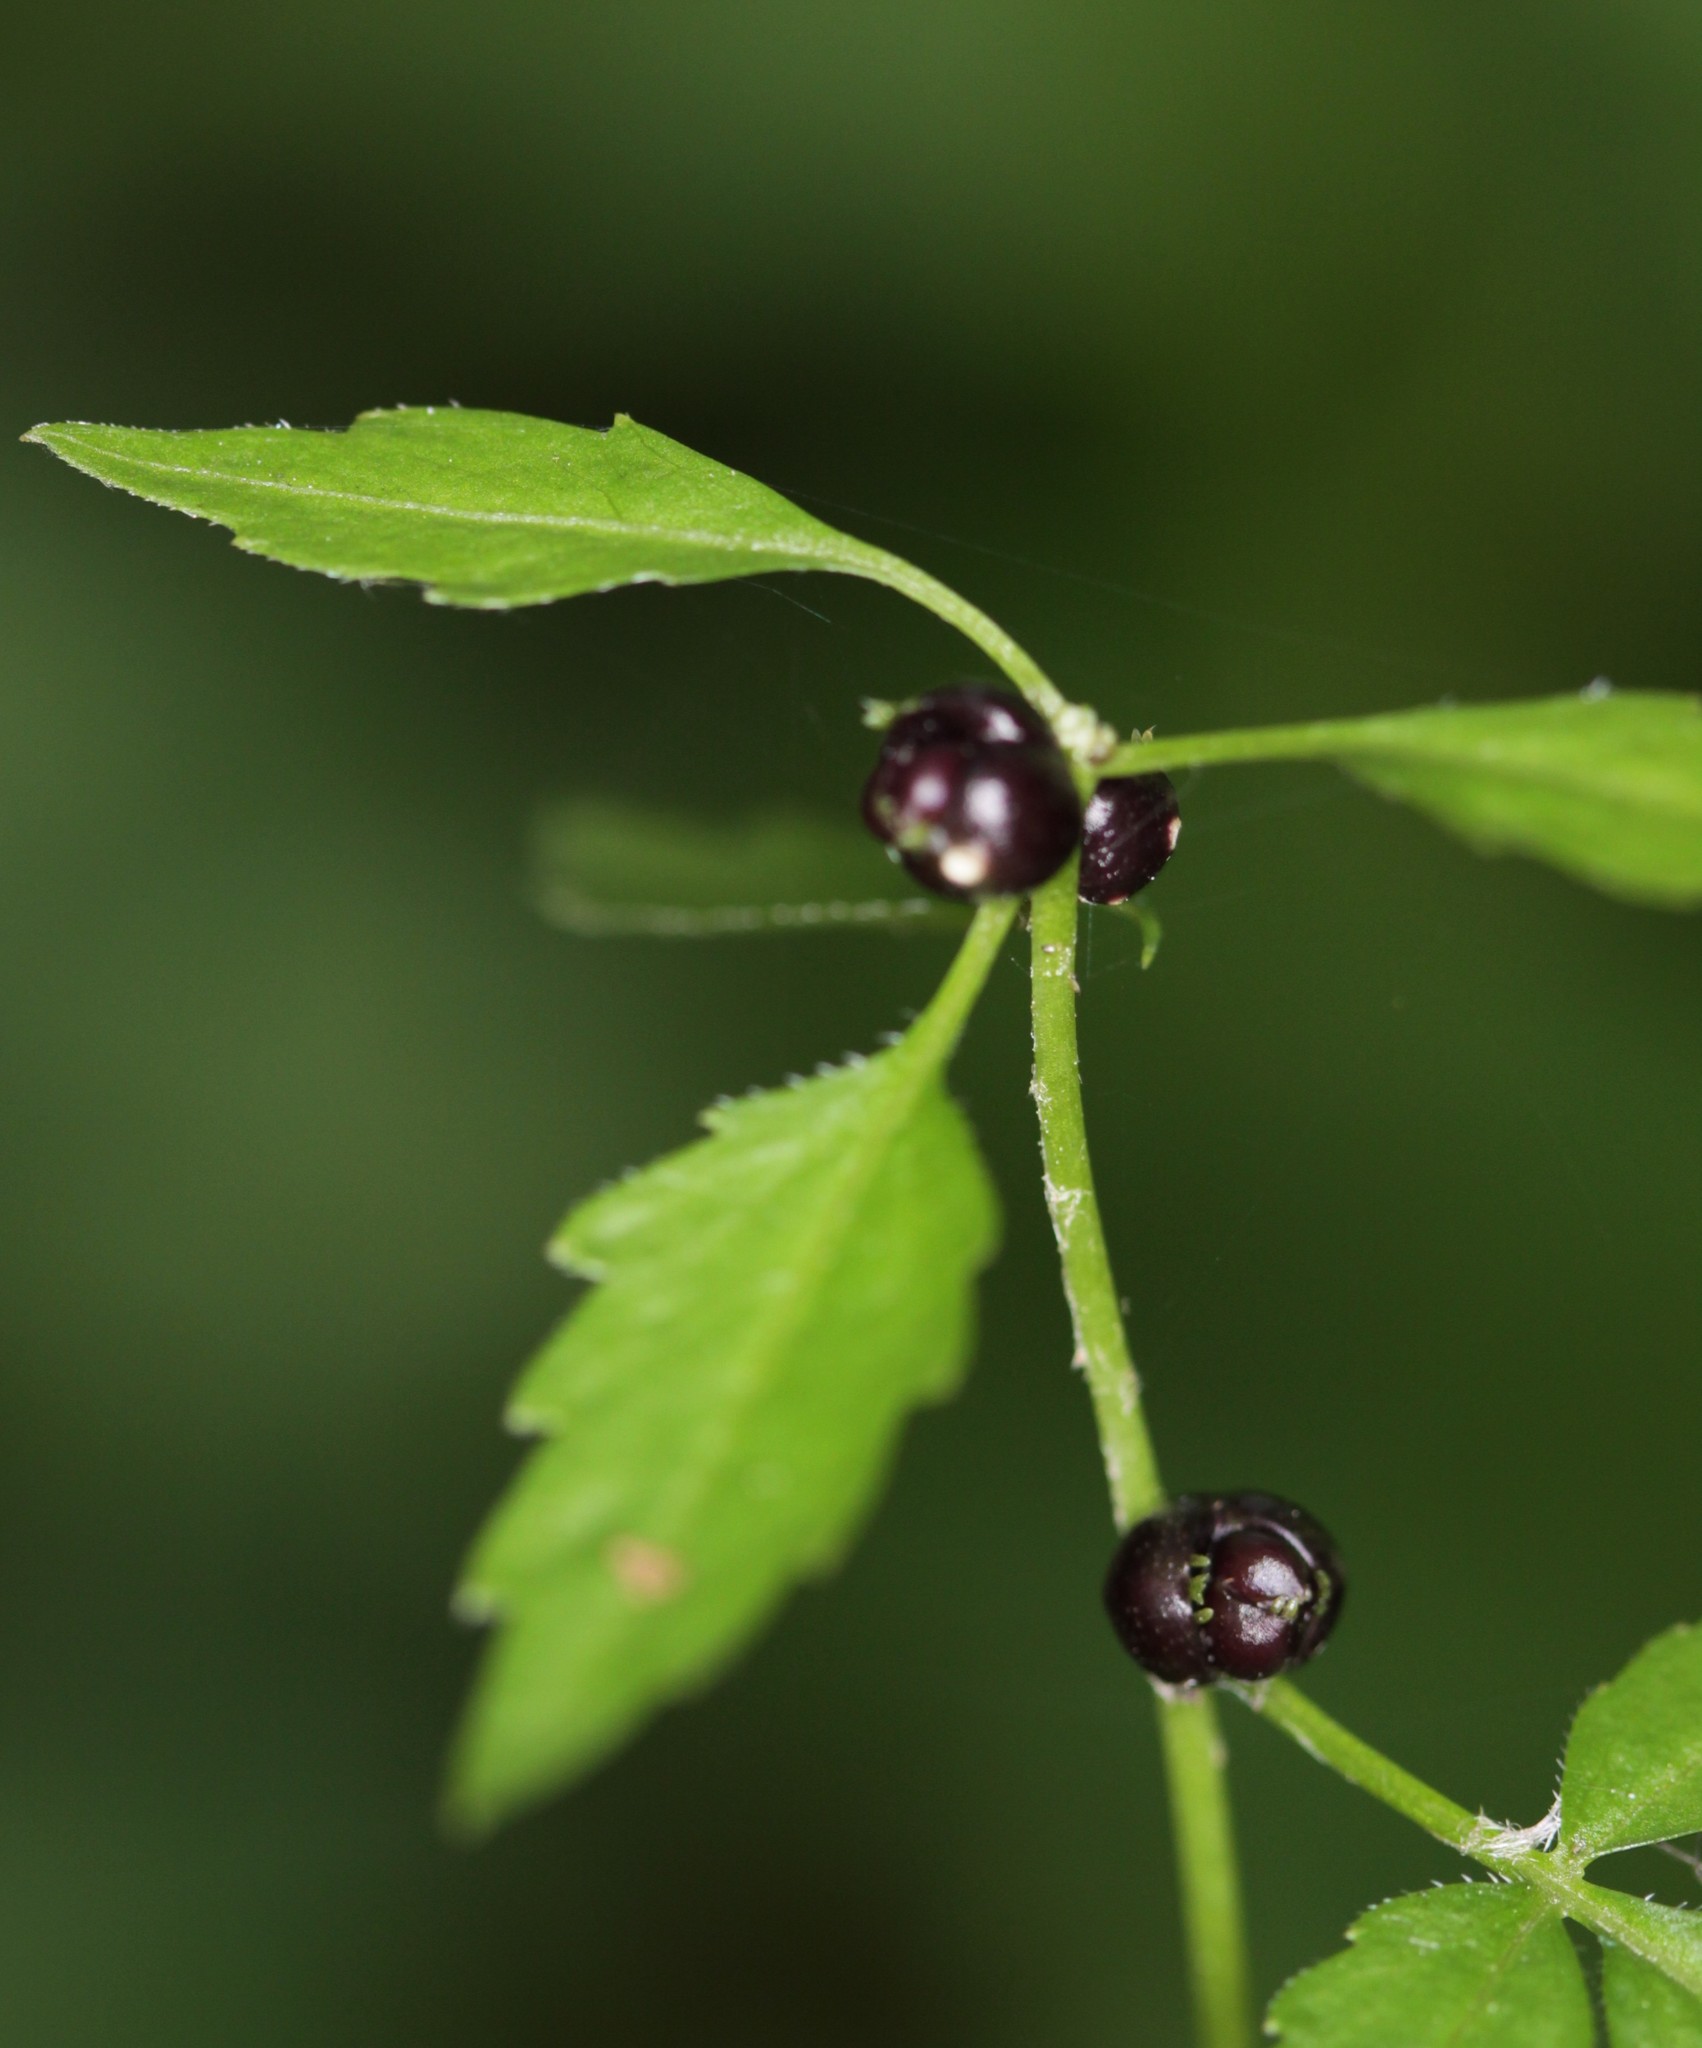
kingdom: Plantae
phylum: Tracheophyta
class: Magnoliopsida
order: Brassicales
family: Brassicaceae
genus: Cardamine
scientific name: Cardamine bulbifera
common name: Coralroot bittercress
